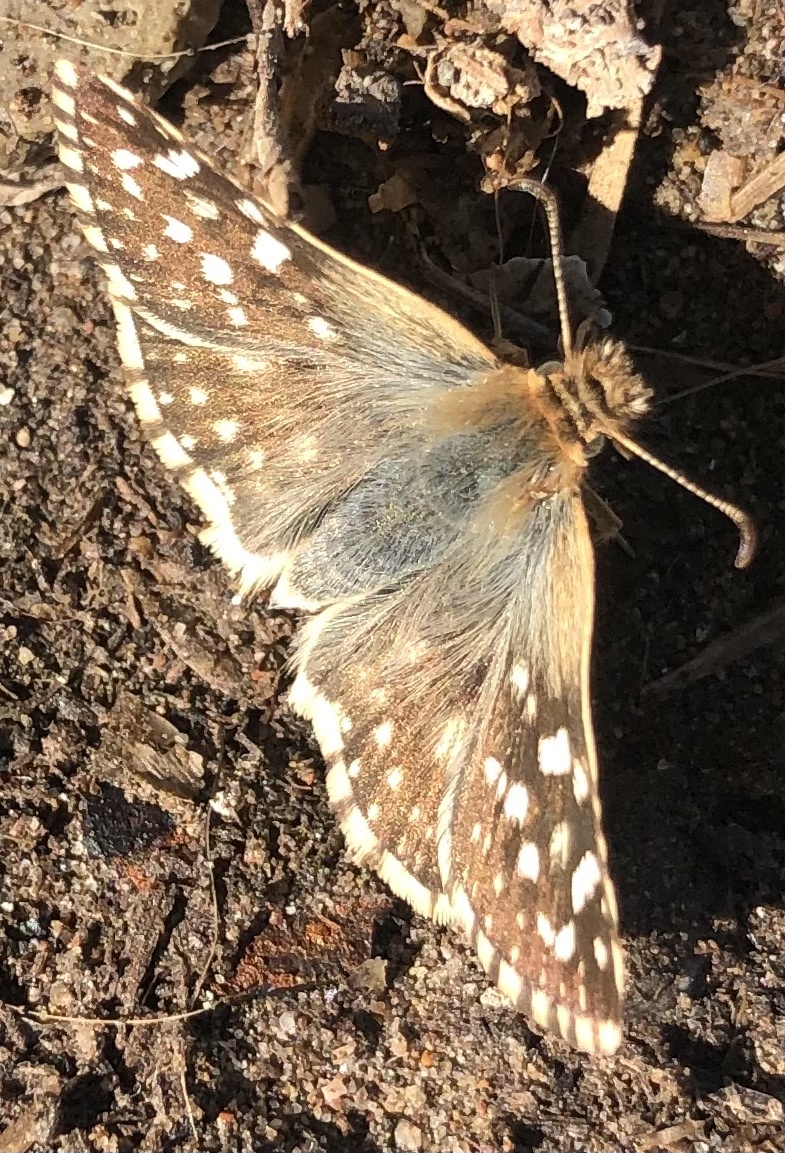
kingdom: Animalia
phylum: Arthropoda
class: Insecta
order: Lepidoptera
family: Hesperiidae
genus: Heliopetes
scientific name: Heliopetes americanus
